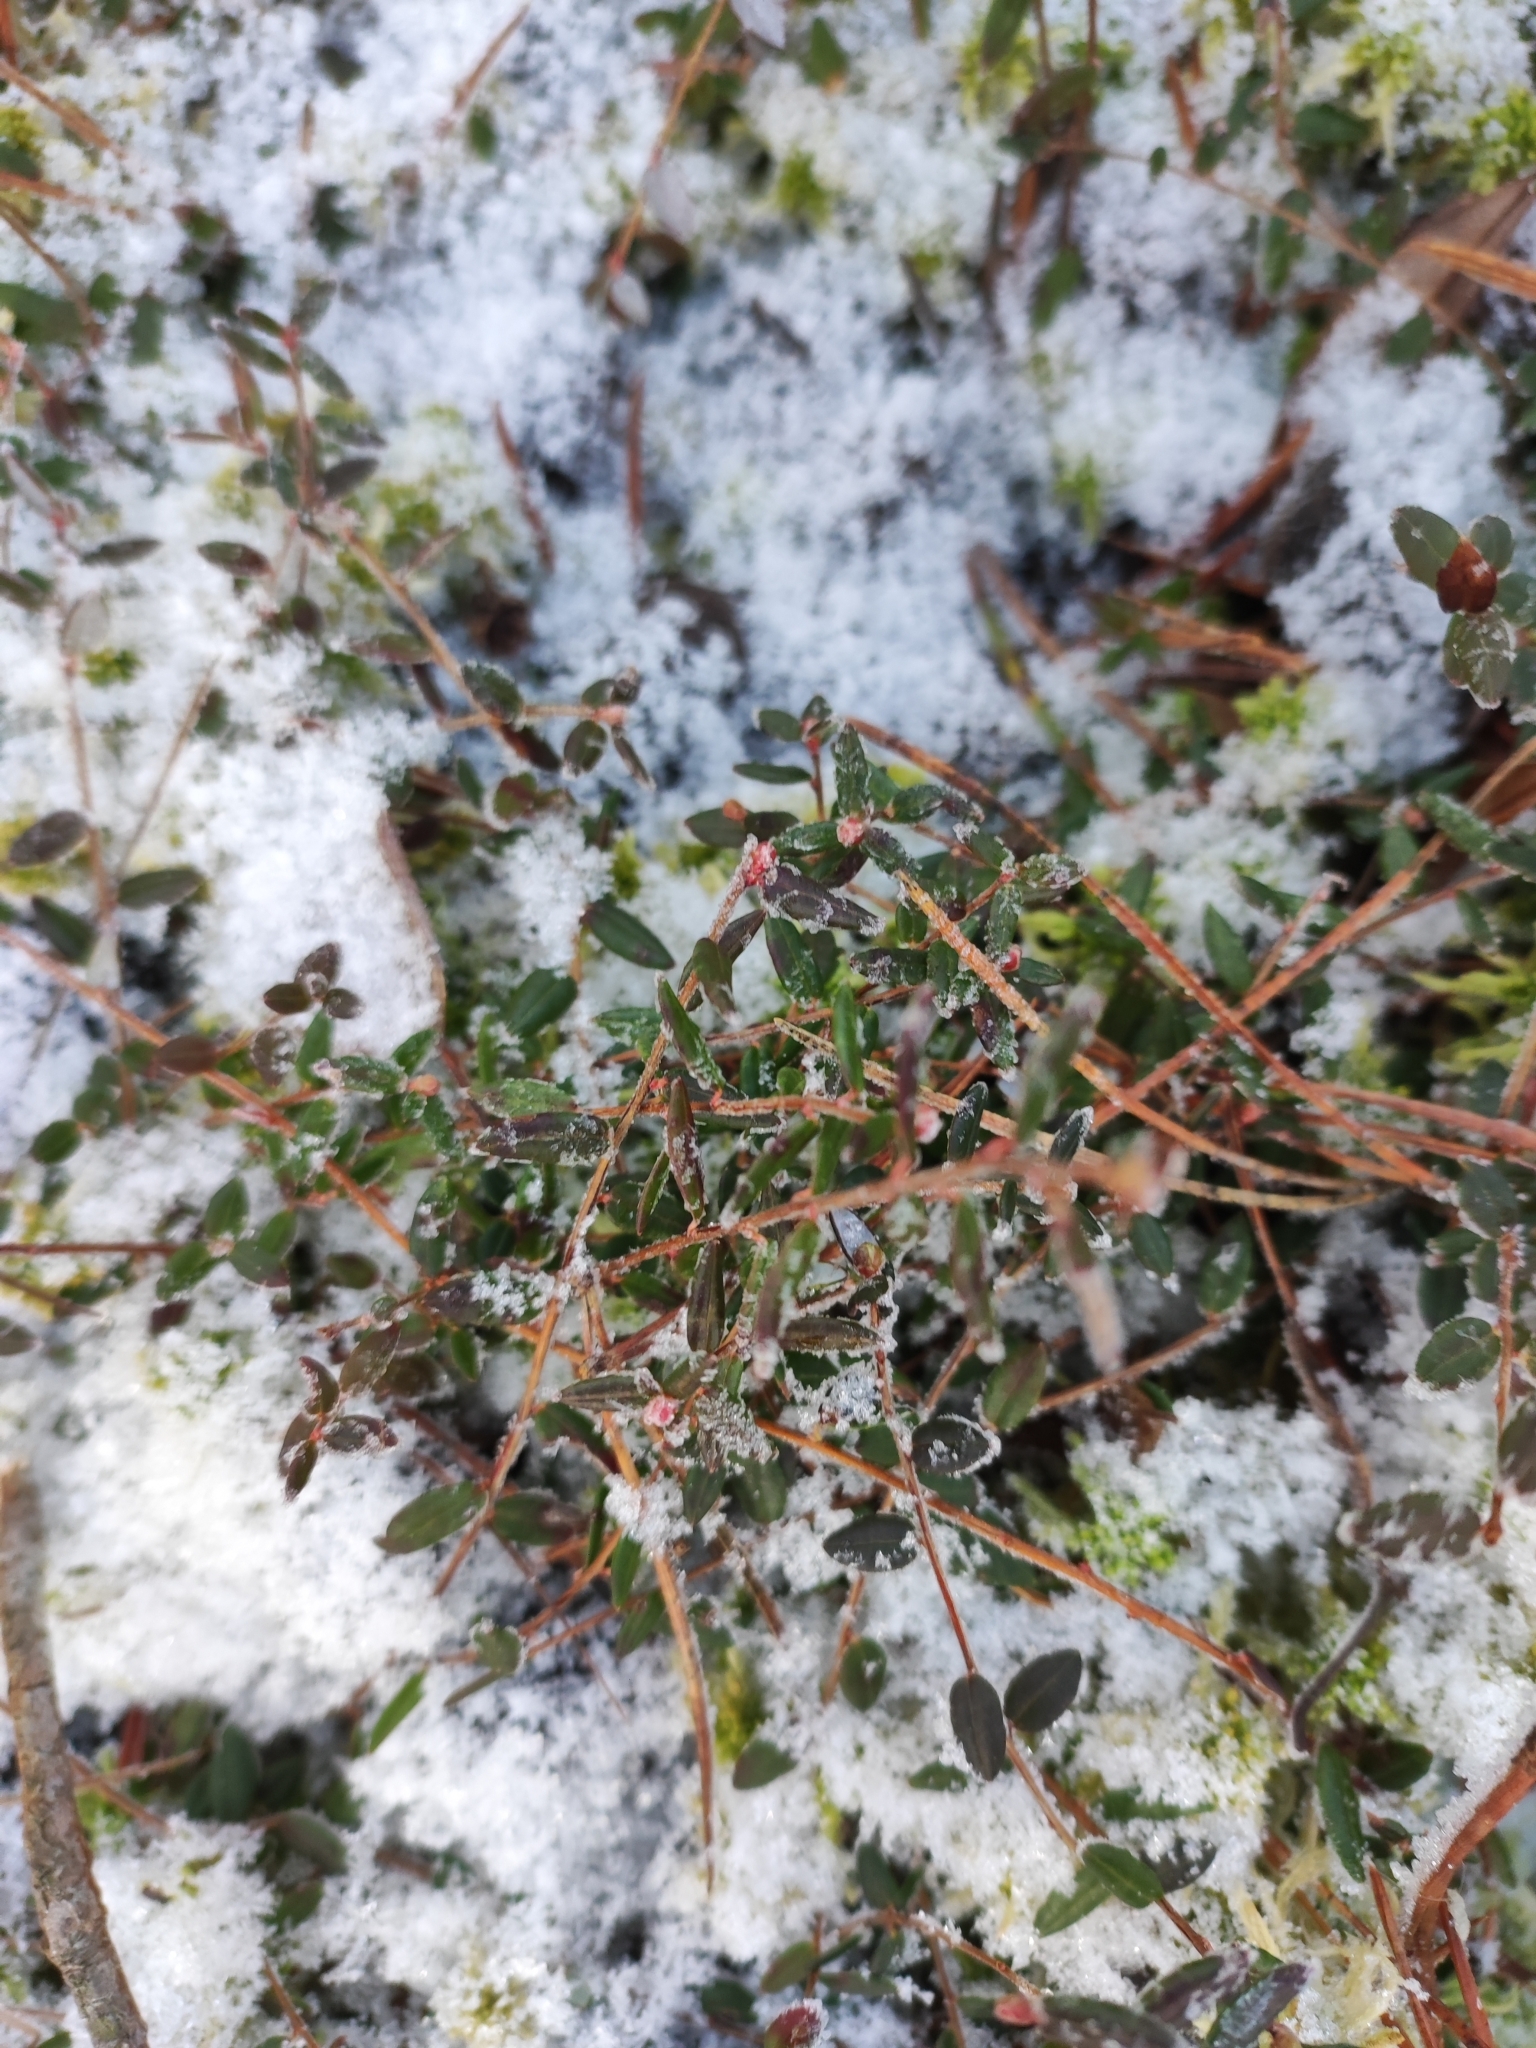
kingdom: Plantae
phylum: Tracheophyta
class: Magnoliopsida
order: Ericales
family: Ericaceae
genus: Vaccinium
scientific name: Vaccinium oxycoccos
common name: Cranberry
